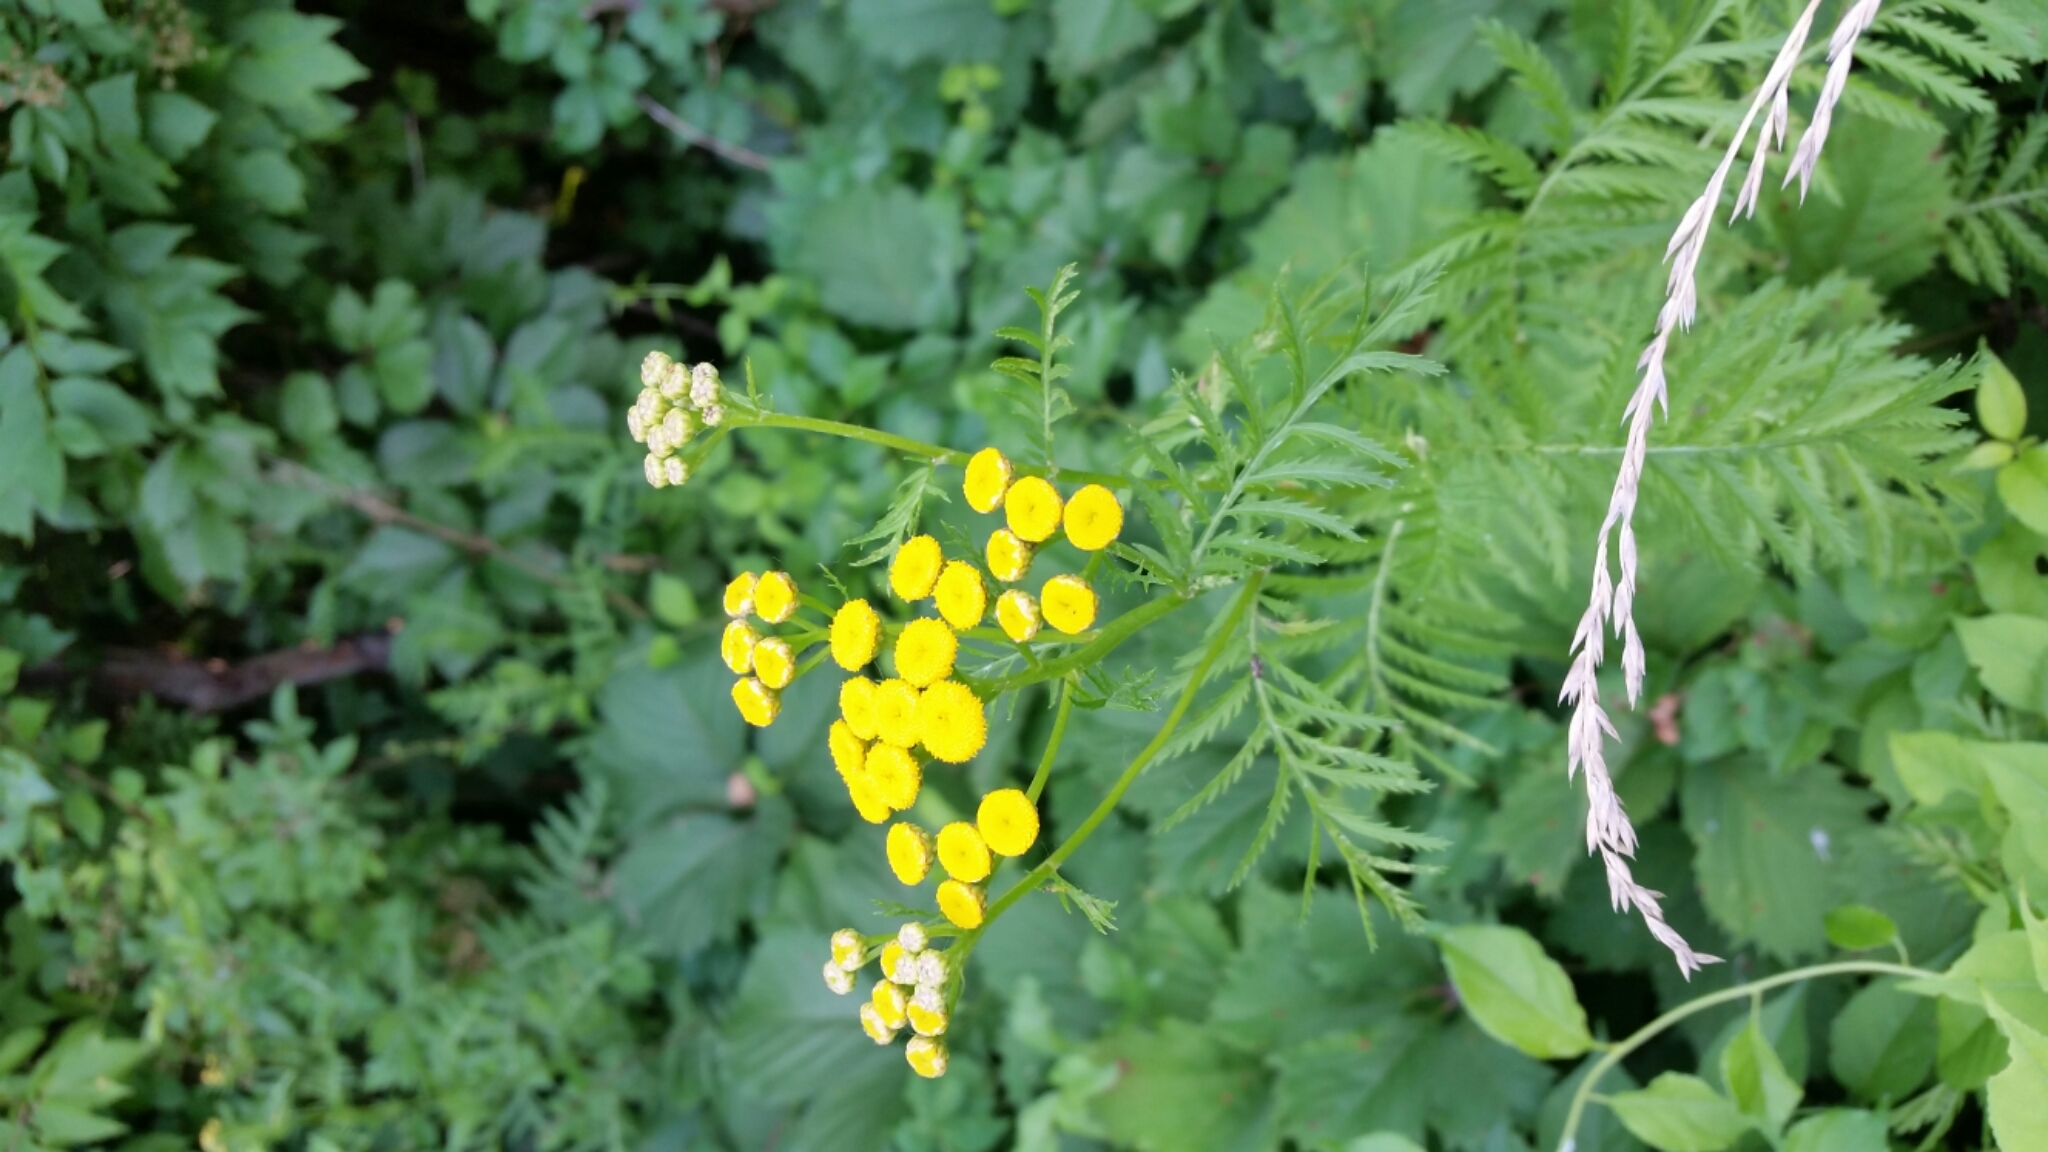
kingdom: Plantae
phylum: Tracheophyta
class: Magnoliopsida
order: Asterales
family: Asteraceae
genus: Tanacetum
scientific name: Tanacetum vulgare
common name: Common tansy
